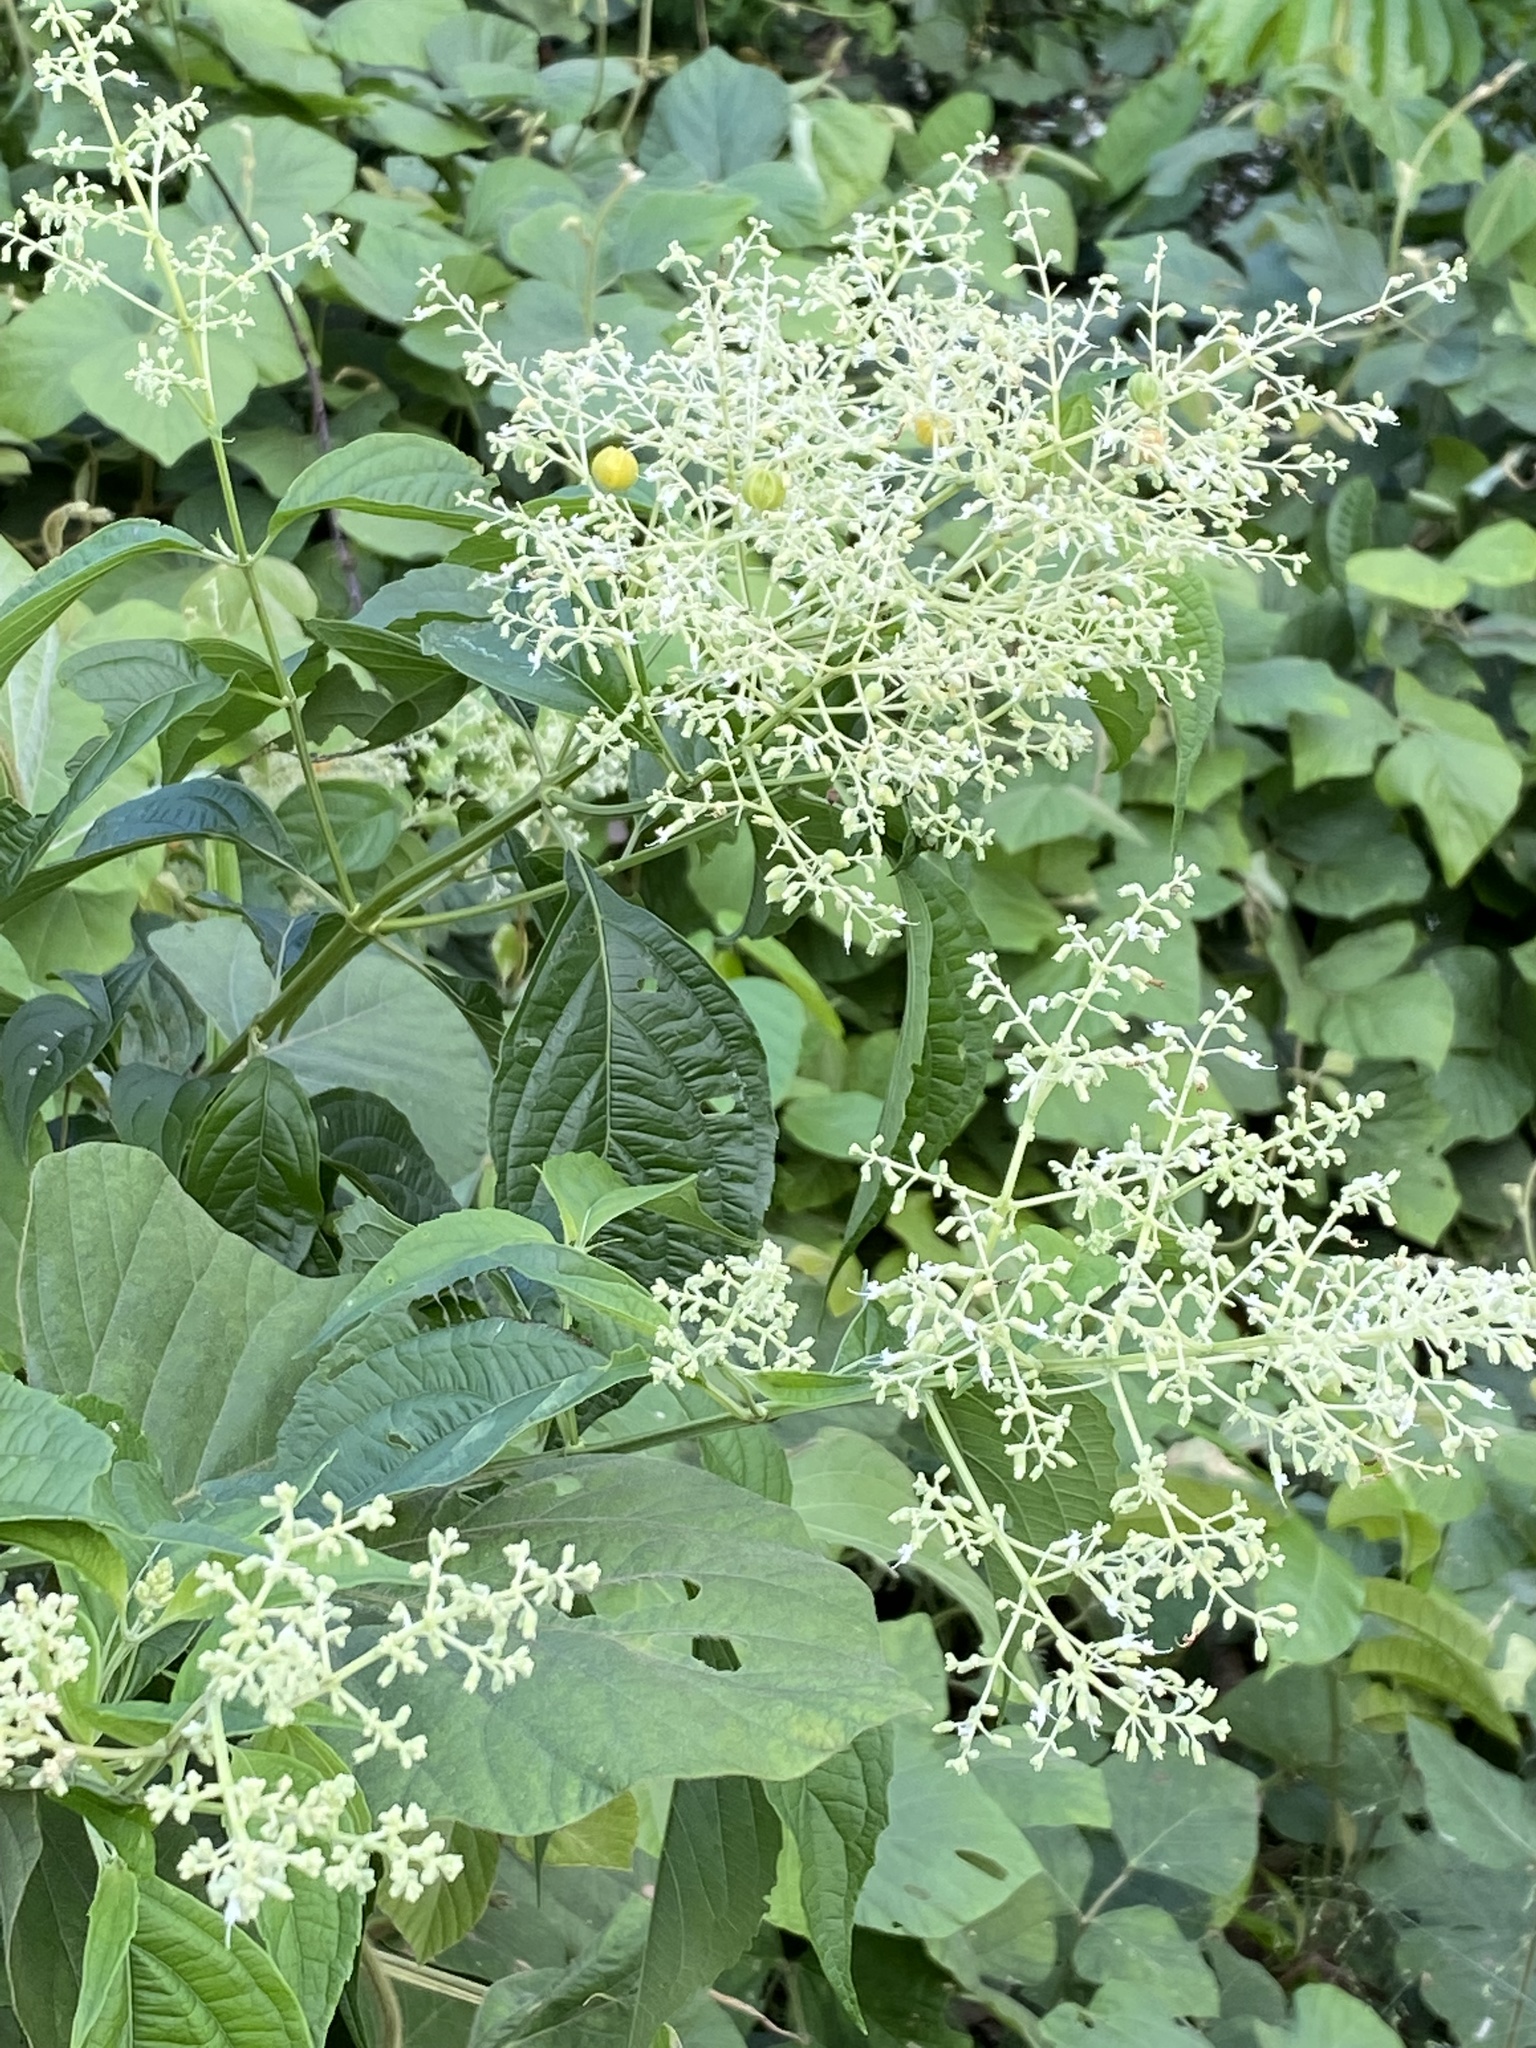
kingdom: Plantae
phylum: Tracheophyta
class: Magnoliopsida
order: Lamiales
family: Lamiaceae
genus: Hoslundia
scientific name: Hoslundia opposita
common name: Kamyuye
